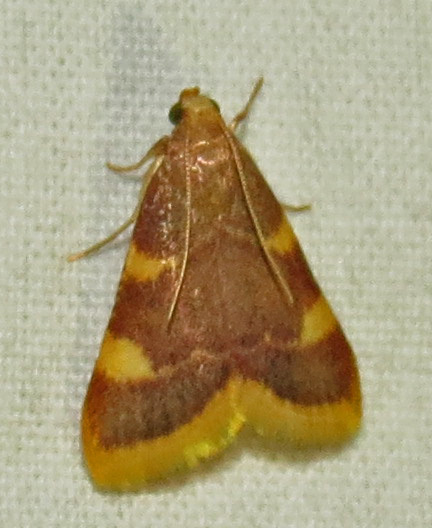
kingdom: Animalia
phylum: Arthropoda
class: Insecta
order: Lepidoptera
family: Pyralidae
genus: Hypsopygia
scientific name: Hypsopygia costalis
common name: Gold triangle
